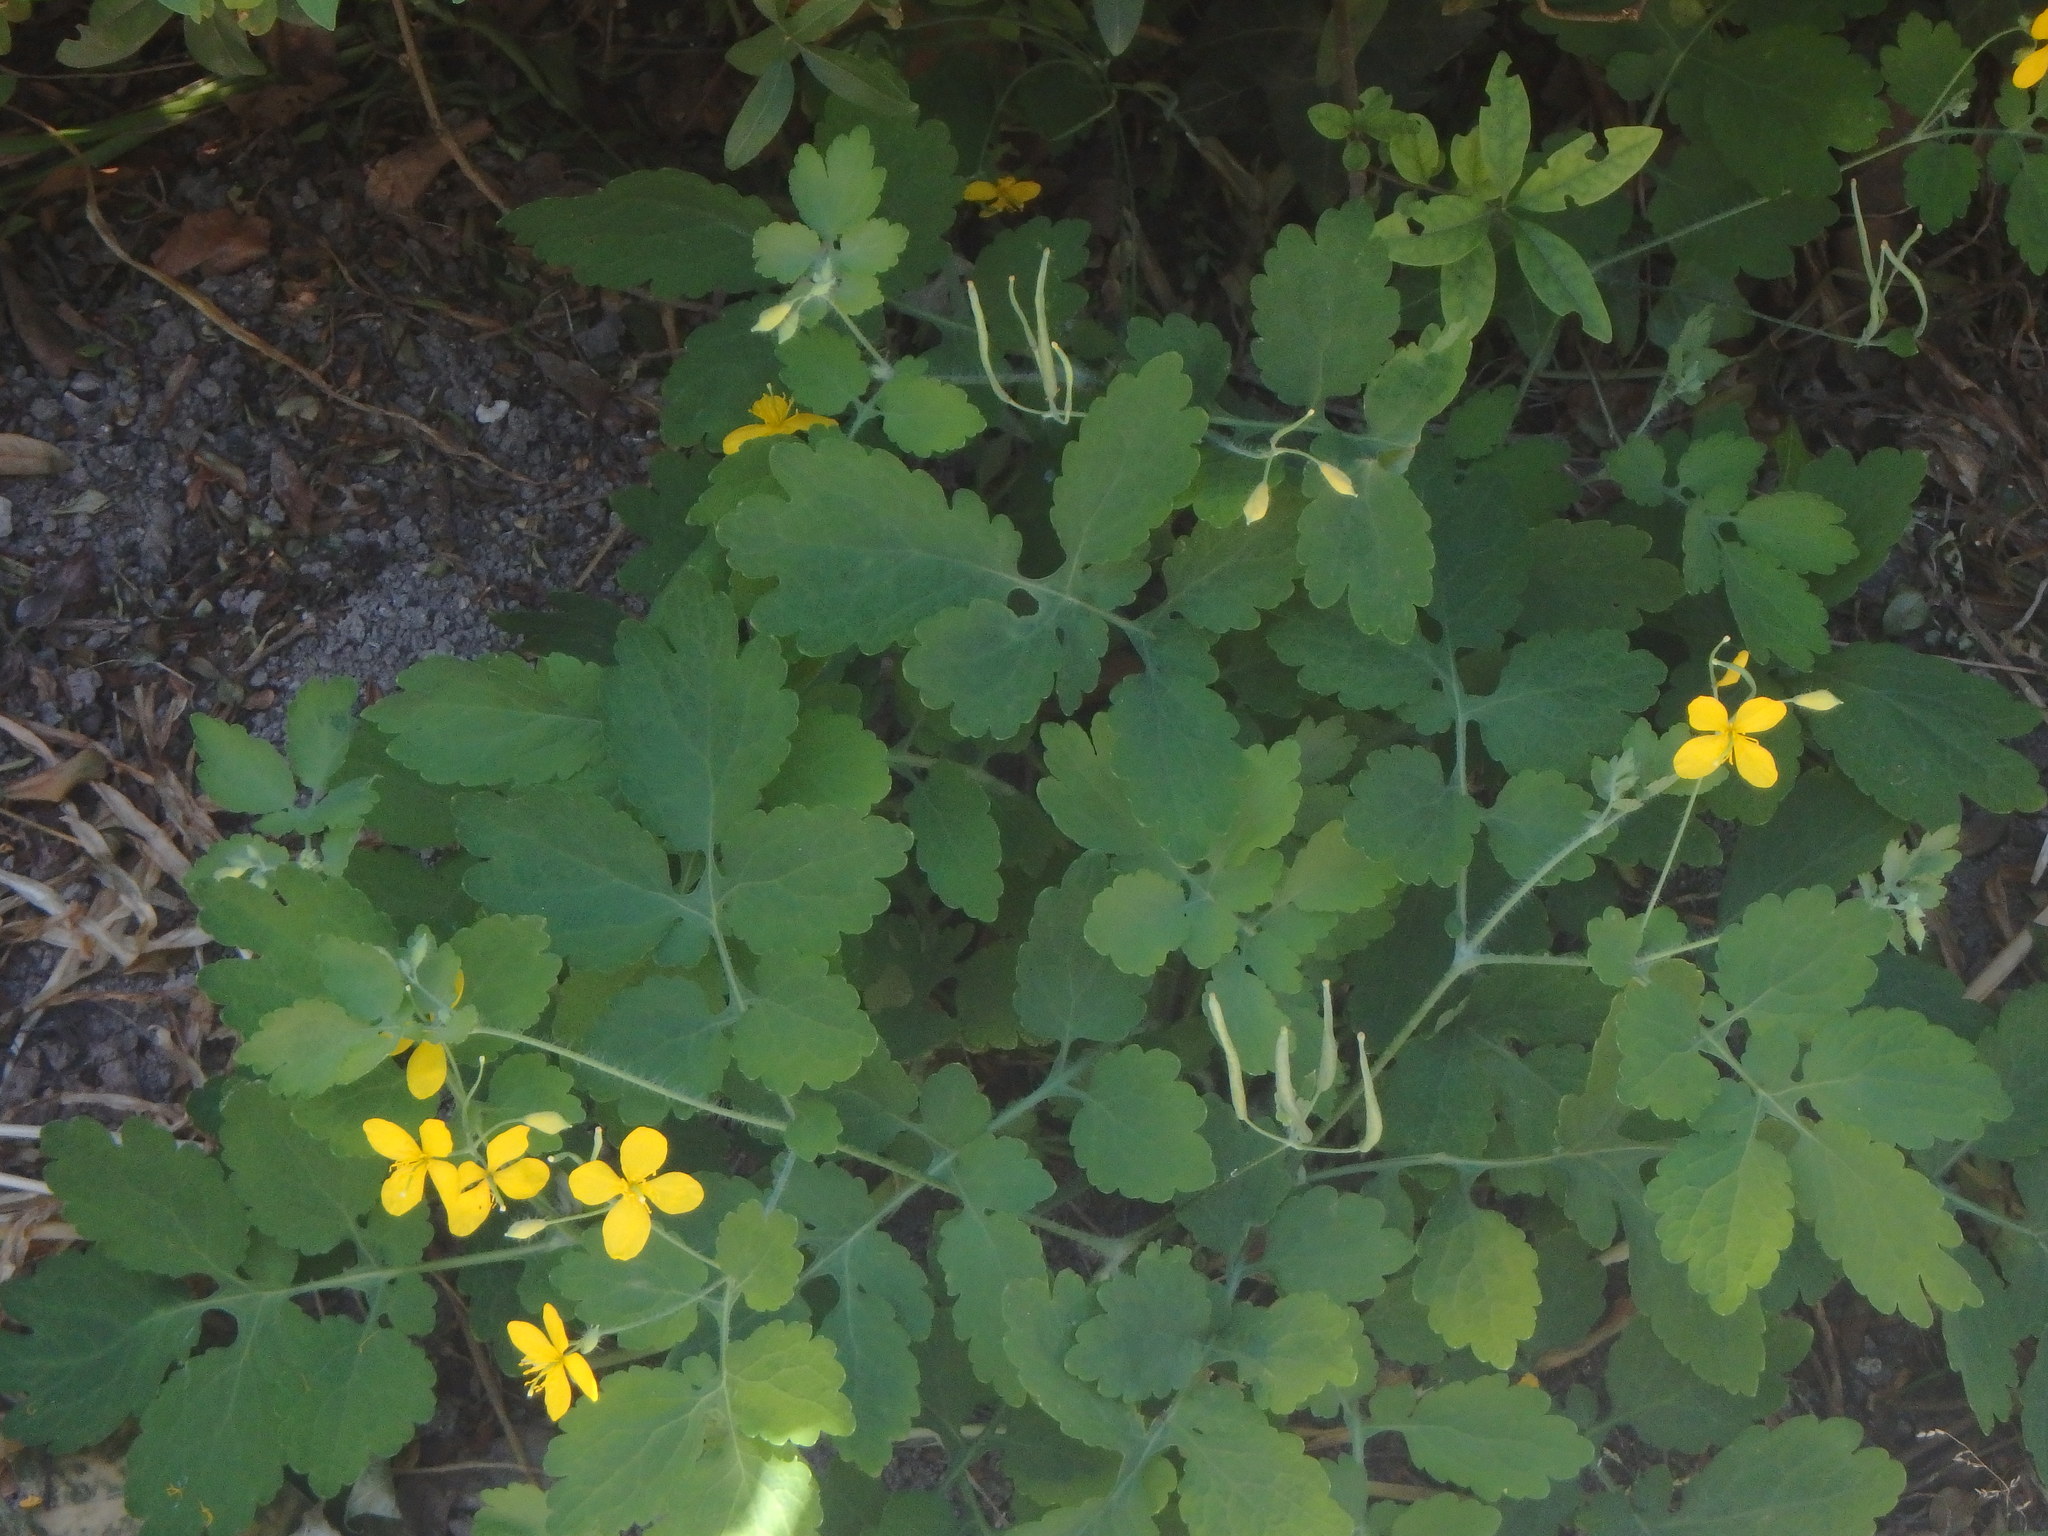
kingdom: Plantae
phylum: Tracheophyta
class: Magnoliopsida
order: Ranunculales
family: Papaveraceae
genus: Chelidonium
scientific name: Chelidonium majus
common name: Greater celandine
